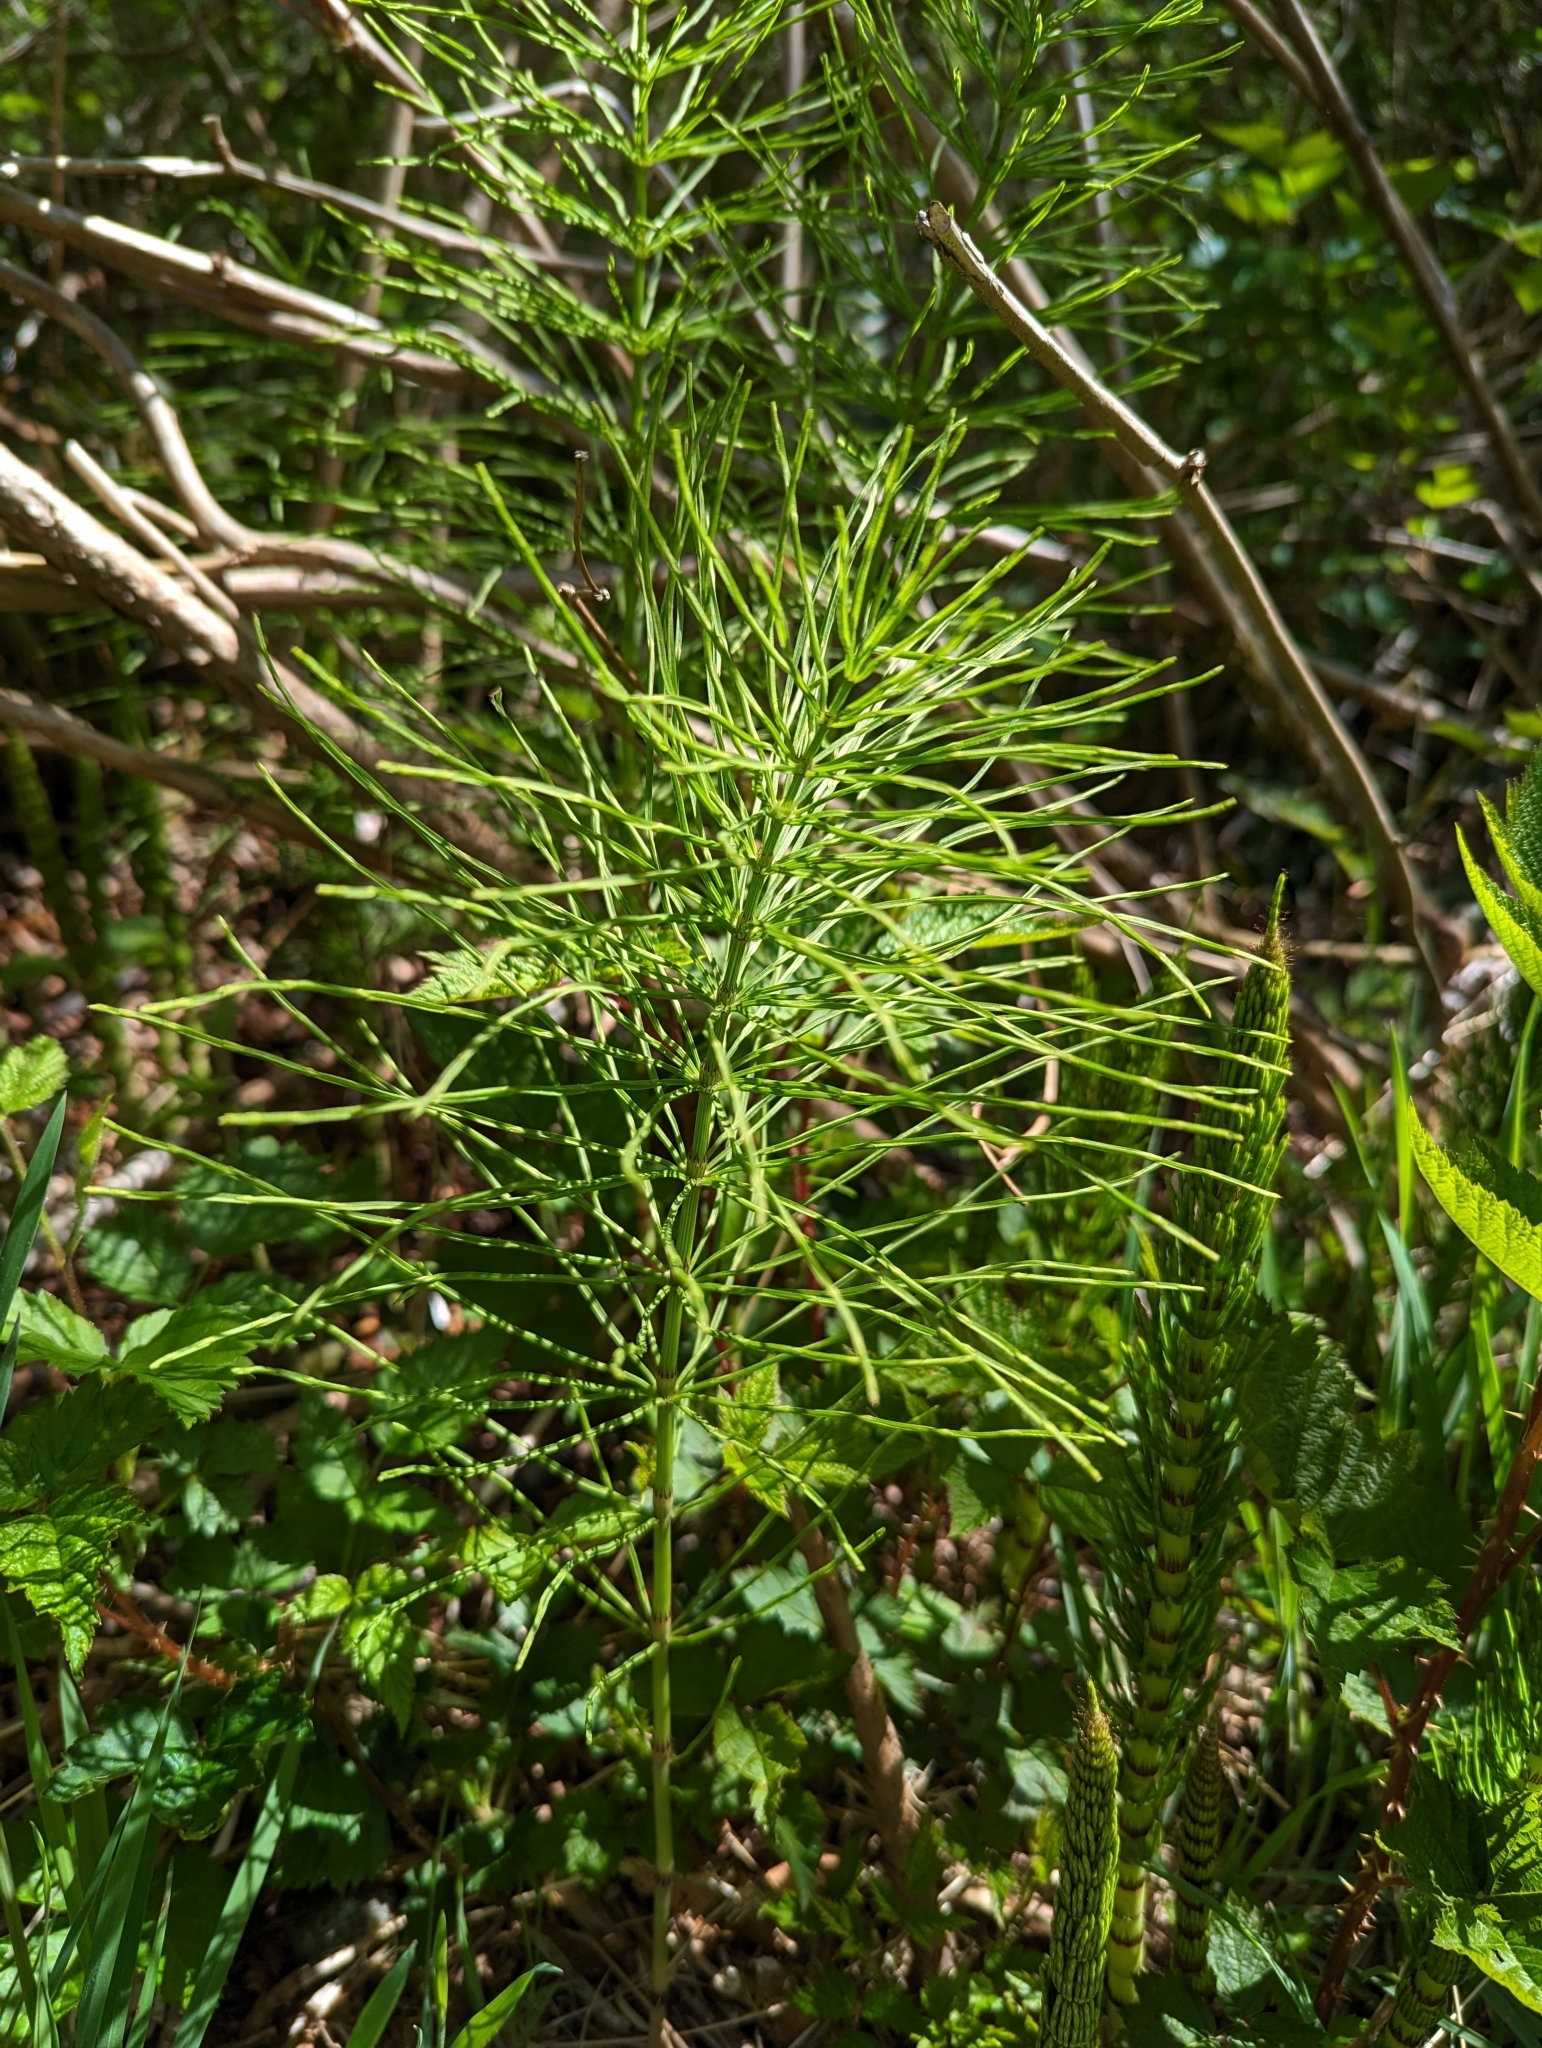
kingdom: Plantae
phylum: Tracheophyta
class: Polypodiopsida
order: Equisetales
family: Equisetaceae
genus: Equisetum
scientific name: Equisetum arvense
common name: Field horsetail
